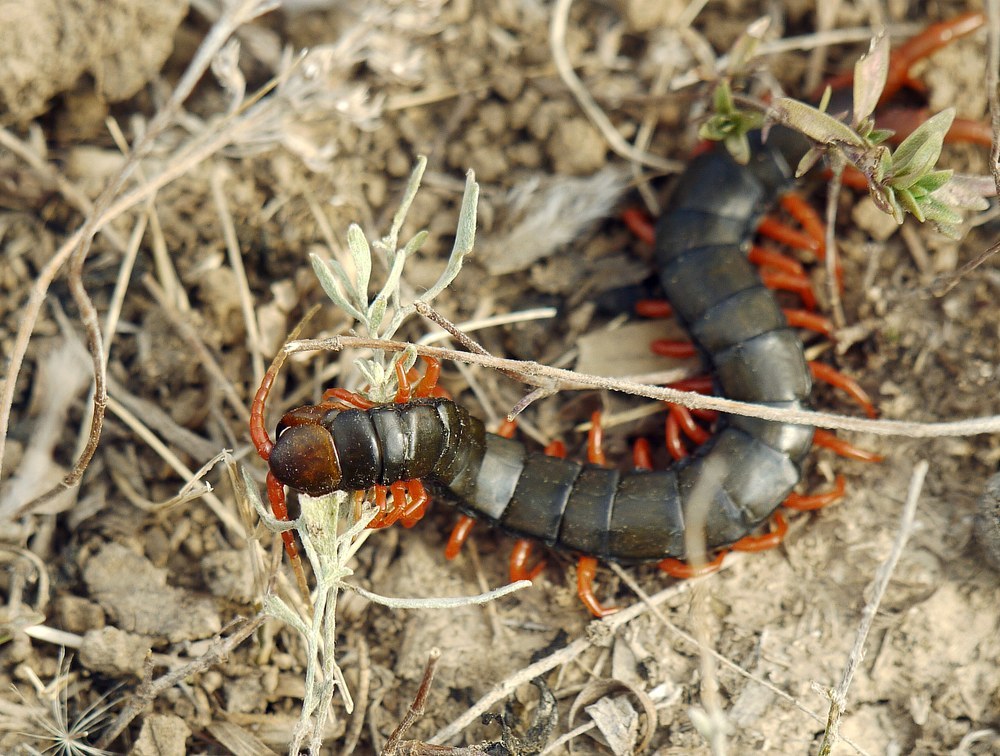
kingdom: Animalia
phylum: Arthropoda
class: Chilopoda
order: Scolopendromorpha
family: Scolopendridae
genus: Scolopendra
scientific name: Scolopendra cingulata
